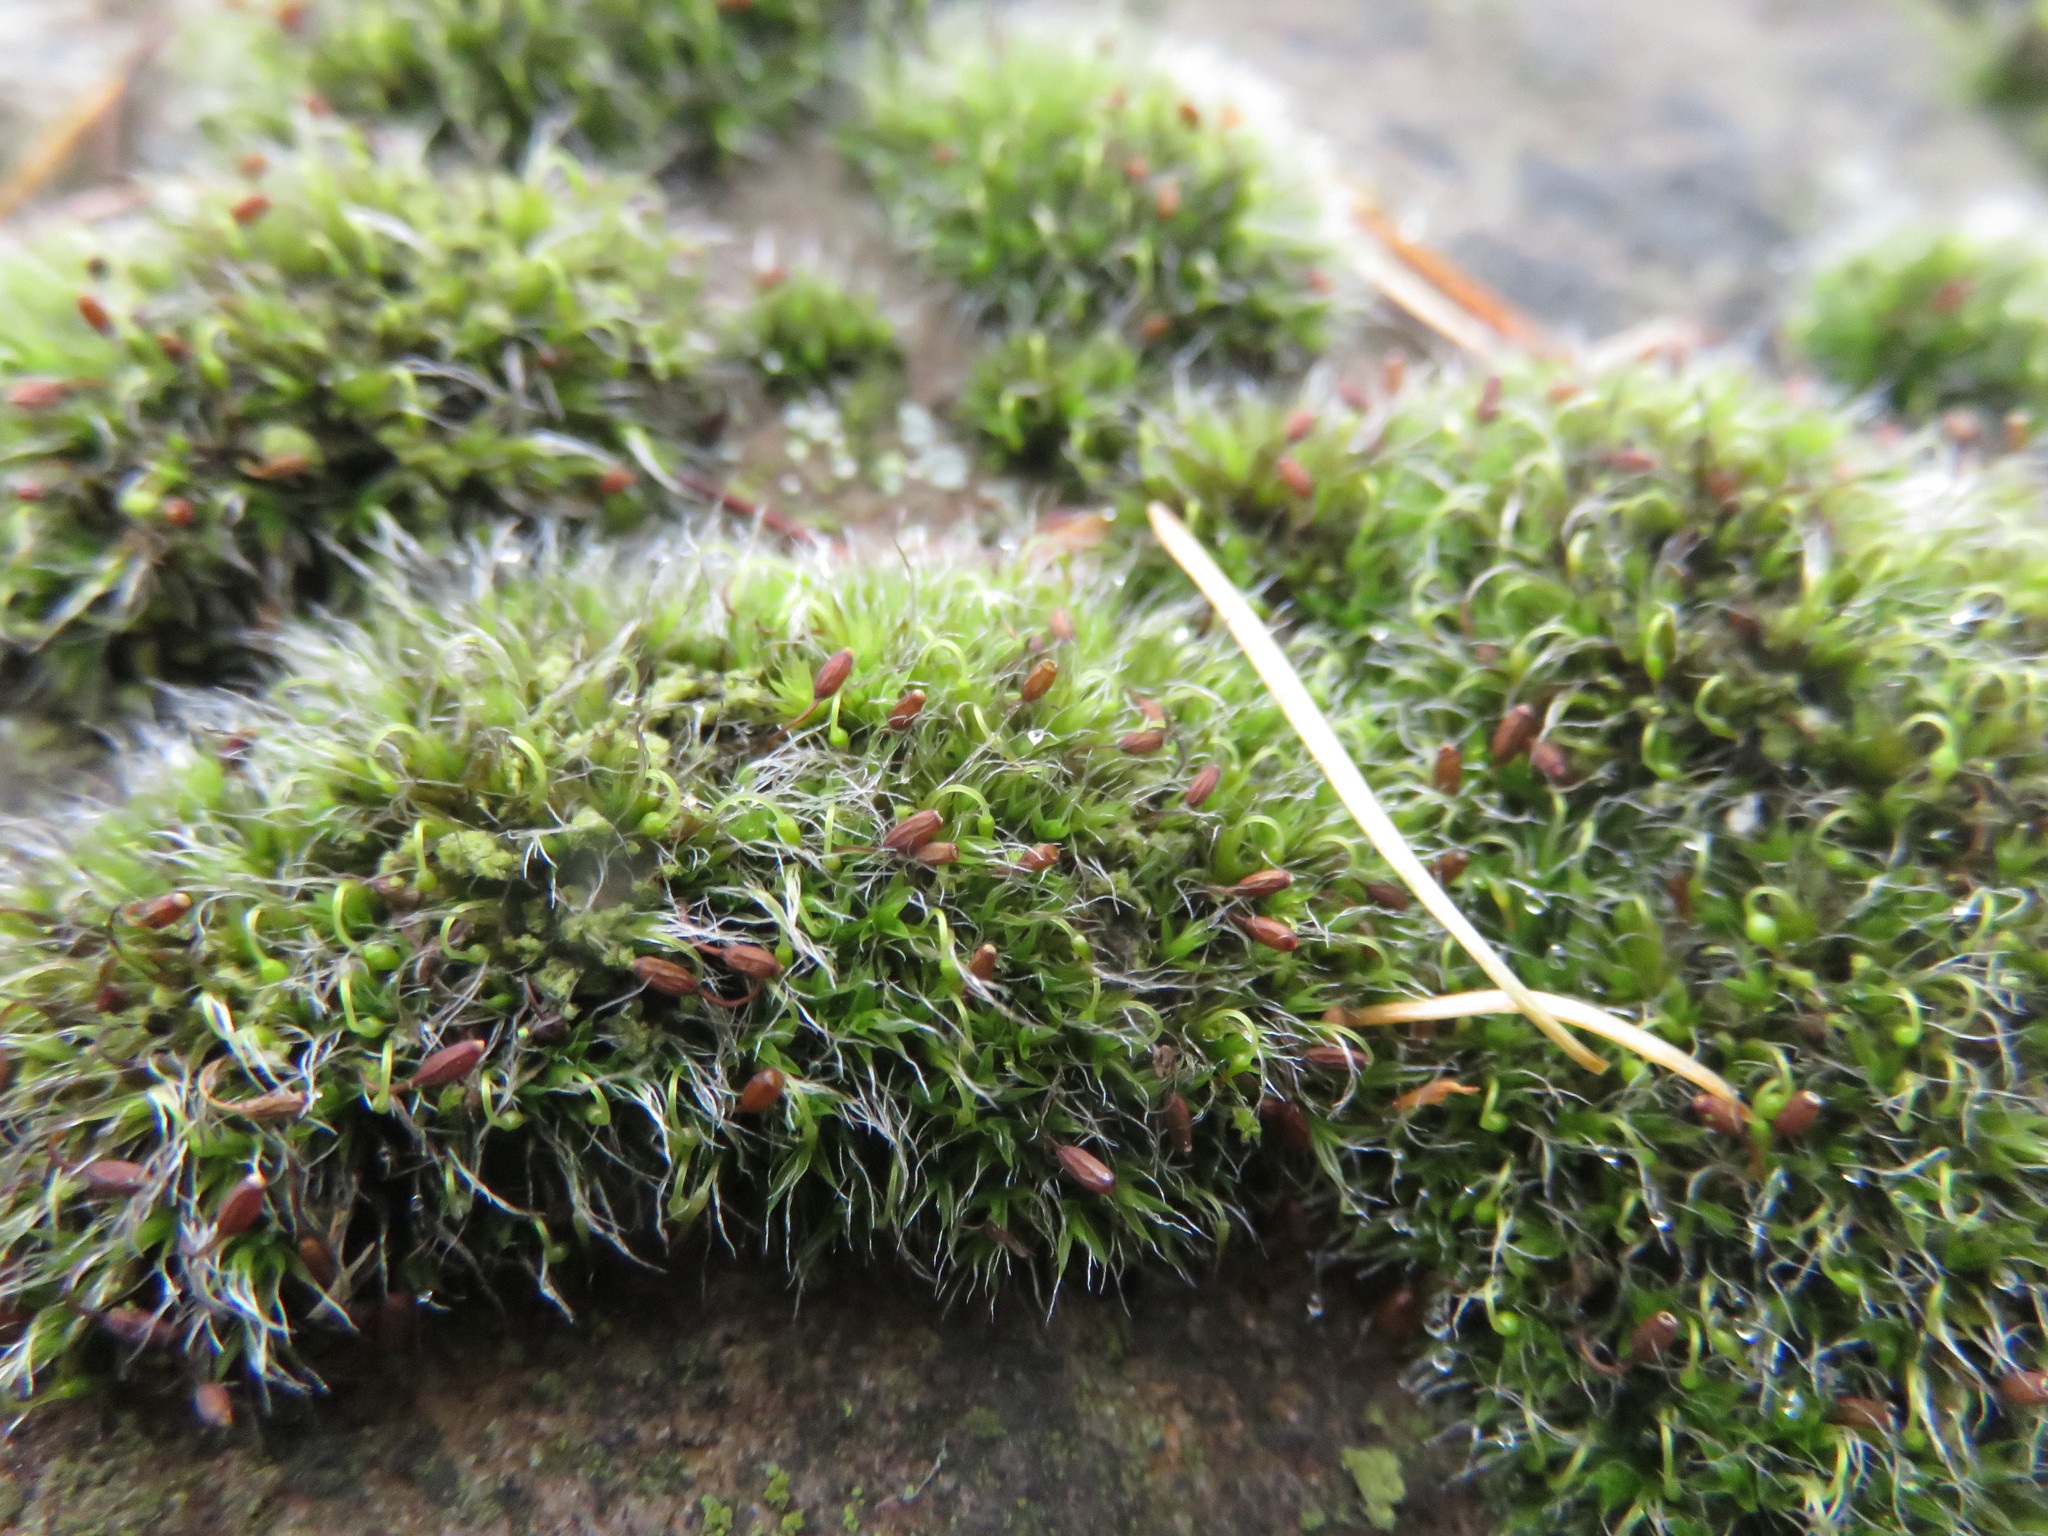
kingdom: Plantae
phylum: Bryophyta
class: Bryopsida
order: Grimmiales
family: Grimmiaceae
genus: Grimmia
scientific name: Grimmia pulvinata
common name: Grey-cushioned grimmia
